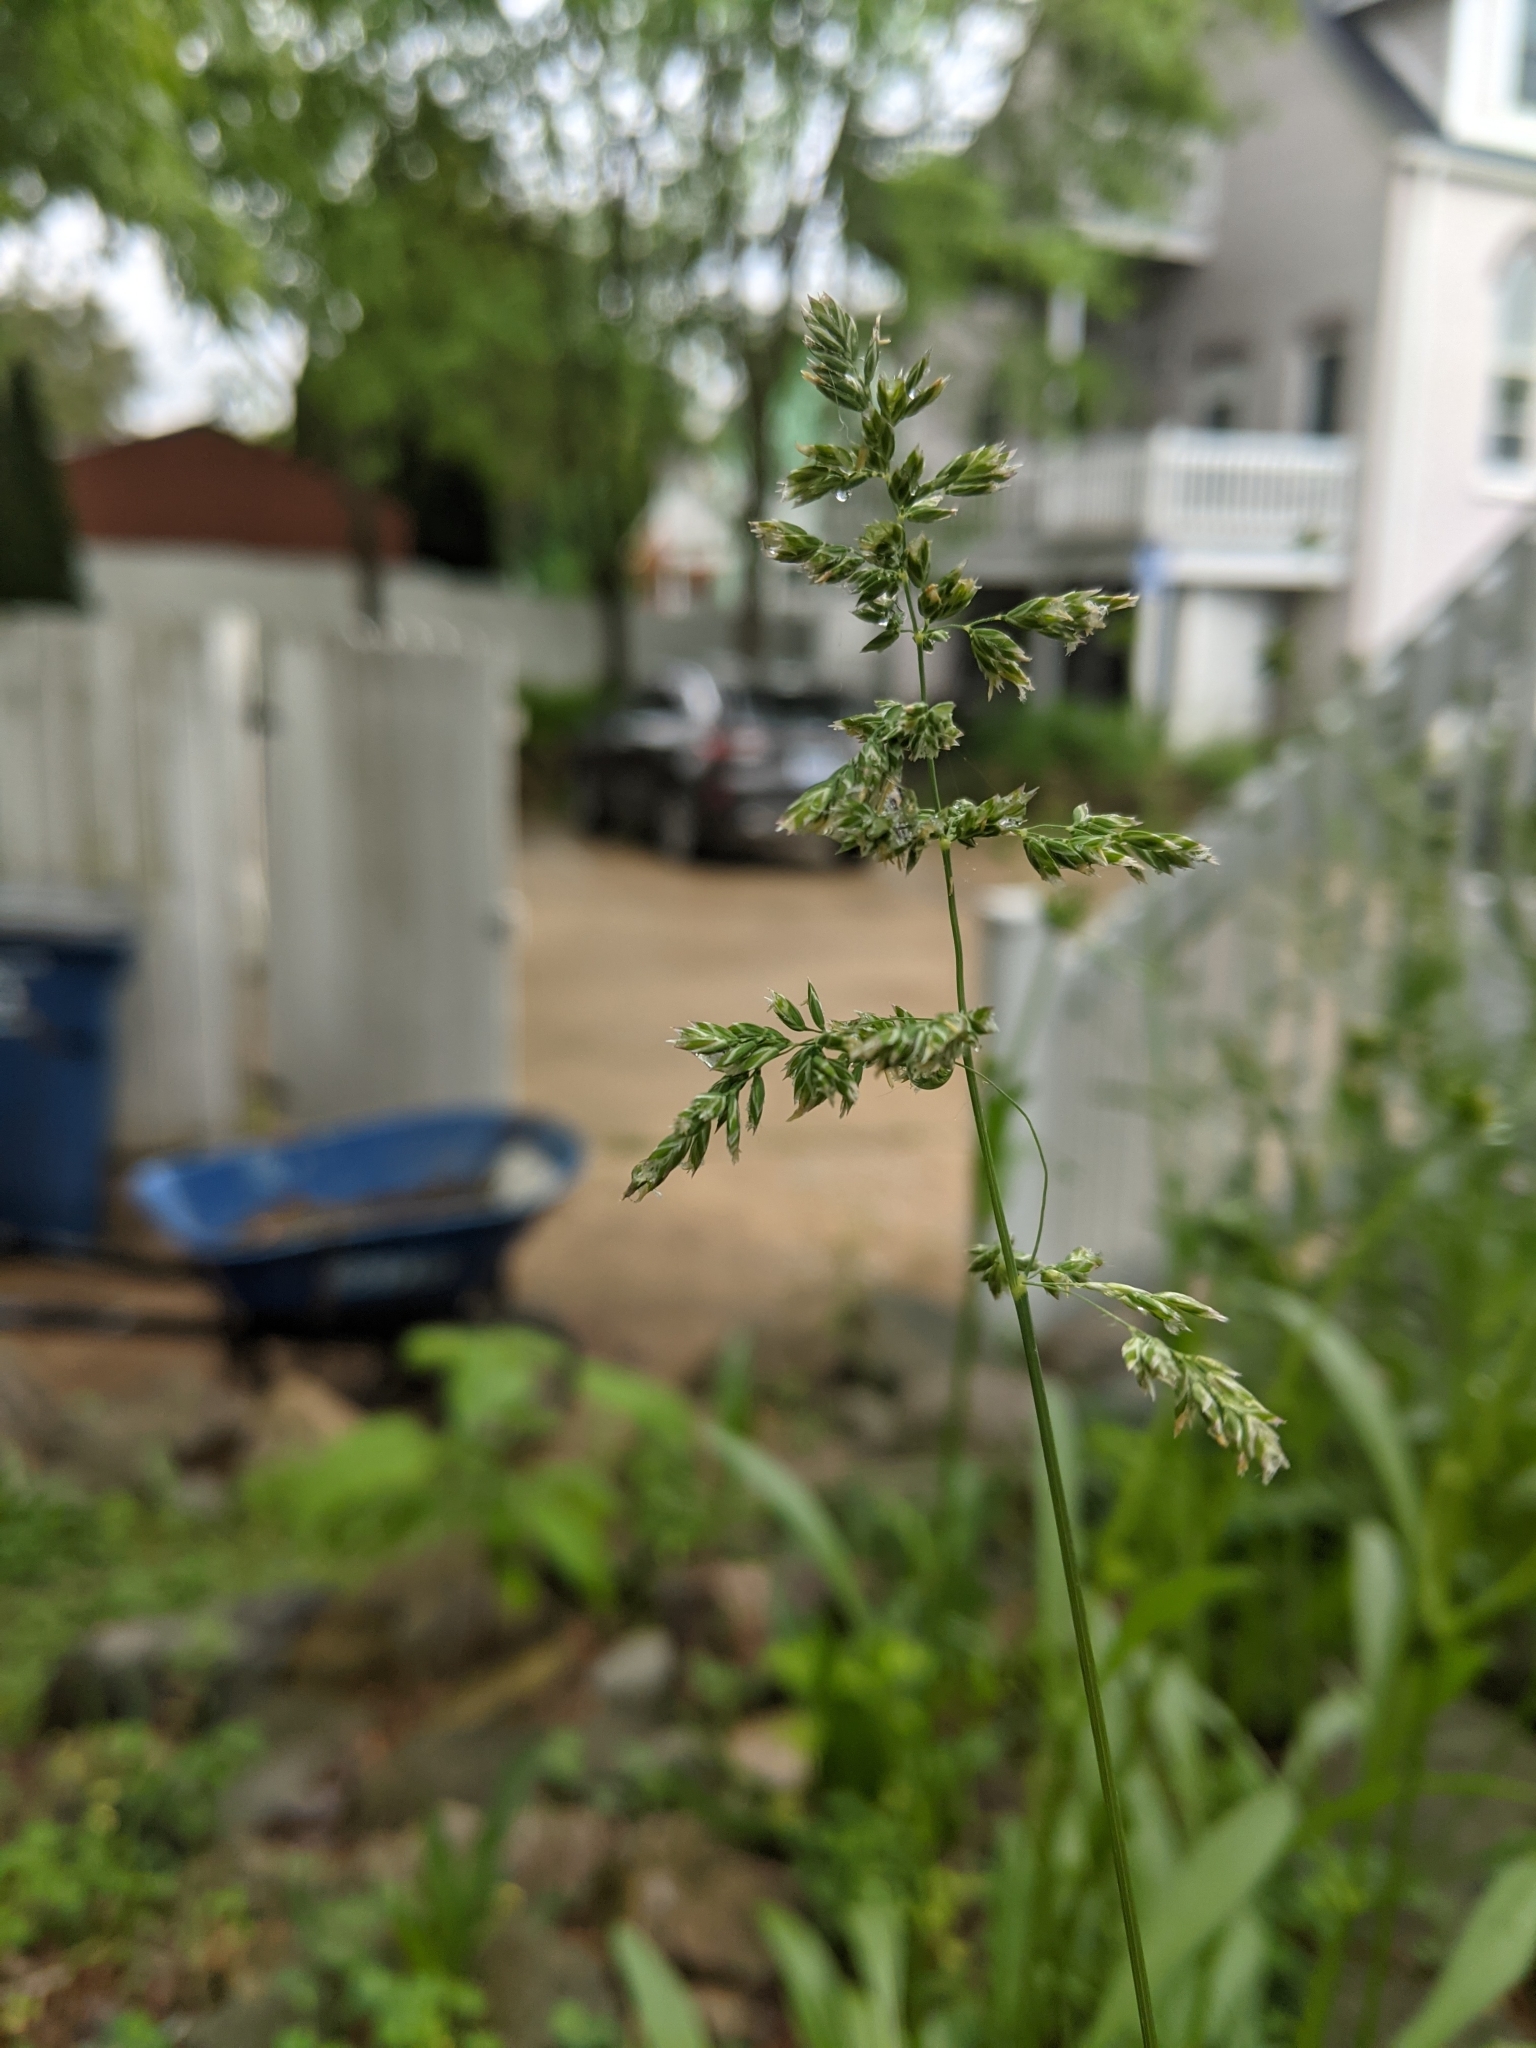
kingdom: Plantae
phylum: Tracheophyta
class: Liliopsida
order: Poales
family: Poaceae
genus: Poa
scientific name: Poa pratensis
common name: Kentucky bluegrass
